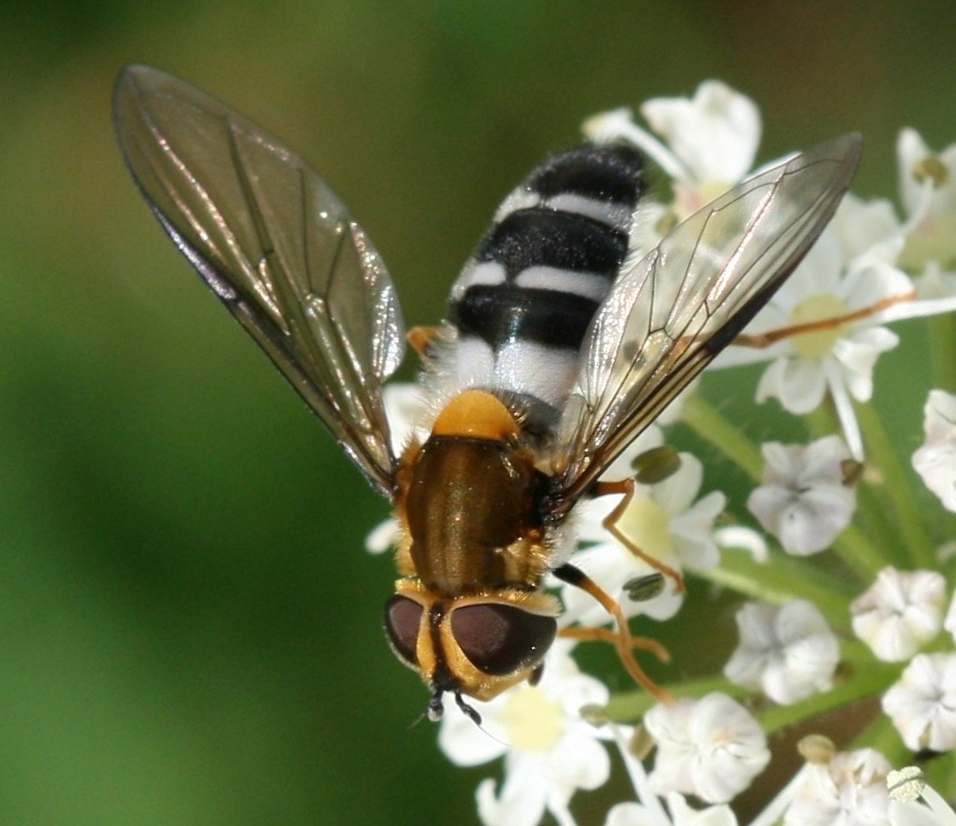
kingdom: Animalia
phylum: Arthropoda
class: Insecta
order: Diptera
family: Syrphidae
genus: Leucozona
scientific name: Leucozona glaucia
